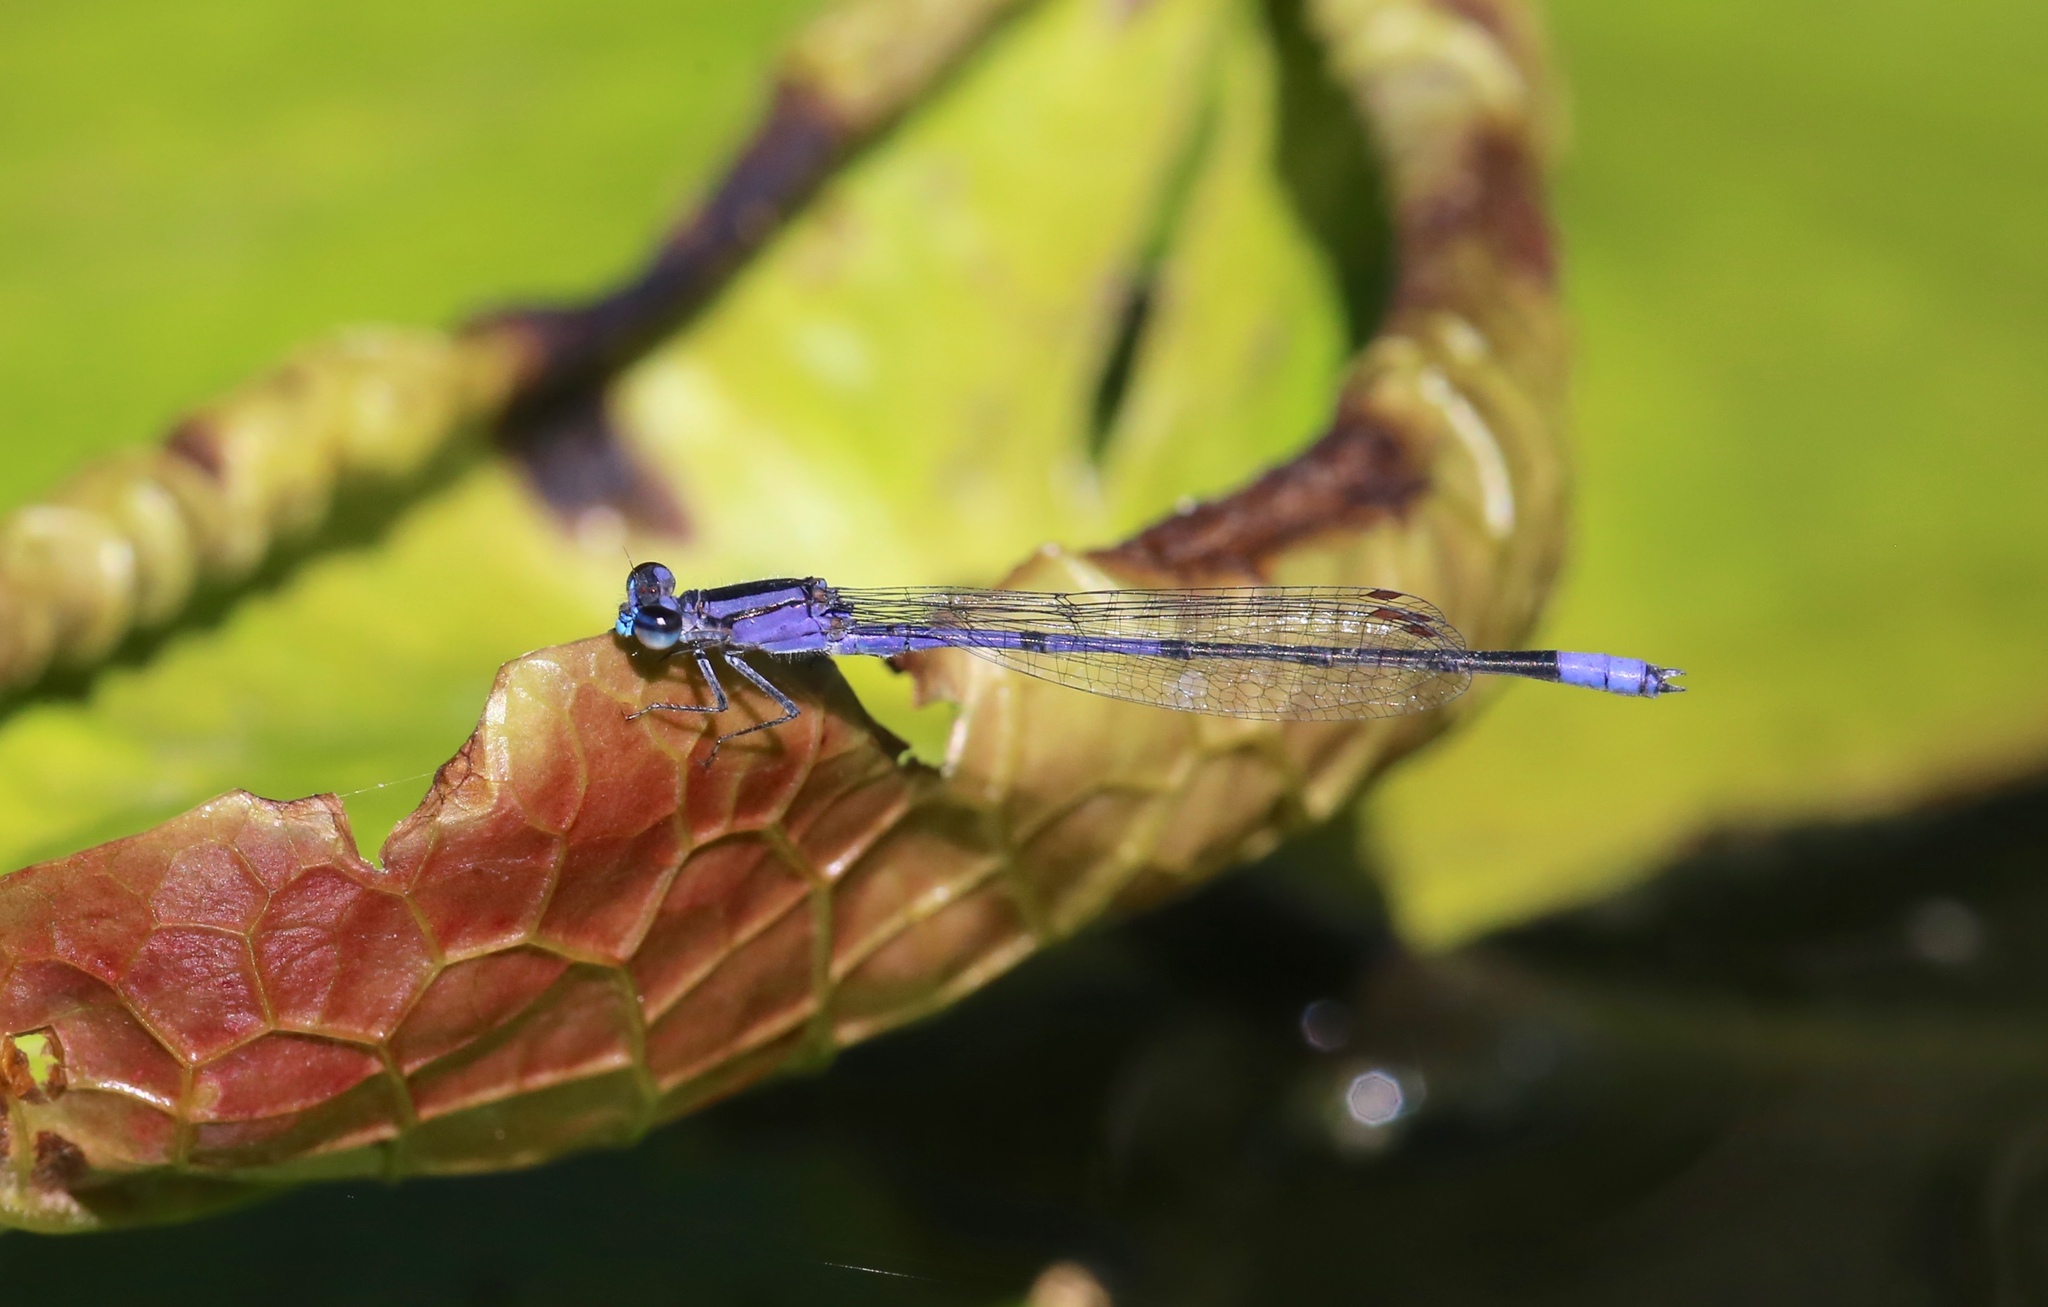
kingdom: Animalia
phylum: Arthropoda
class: Insecta
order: Odonata
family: Coenagrionidae
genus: Enallagma
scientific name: Enallagma semicirculare
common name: Claw-tipped bluet
